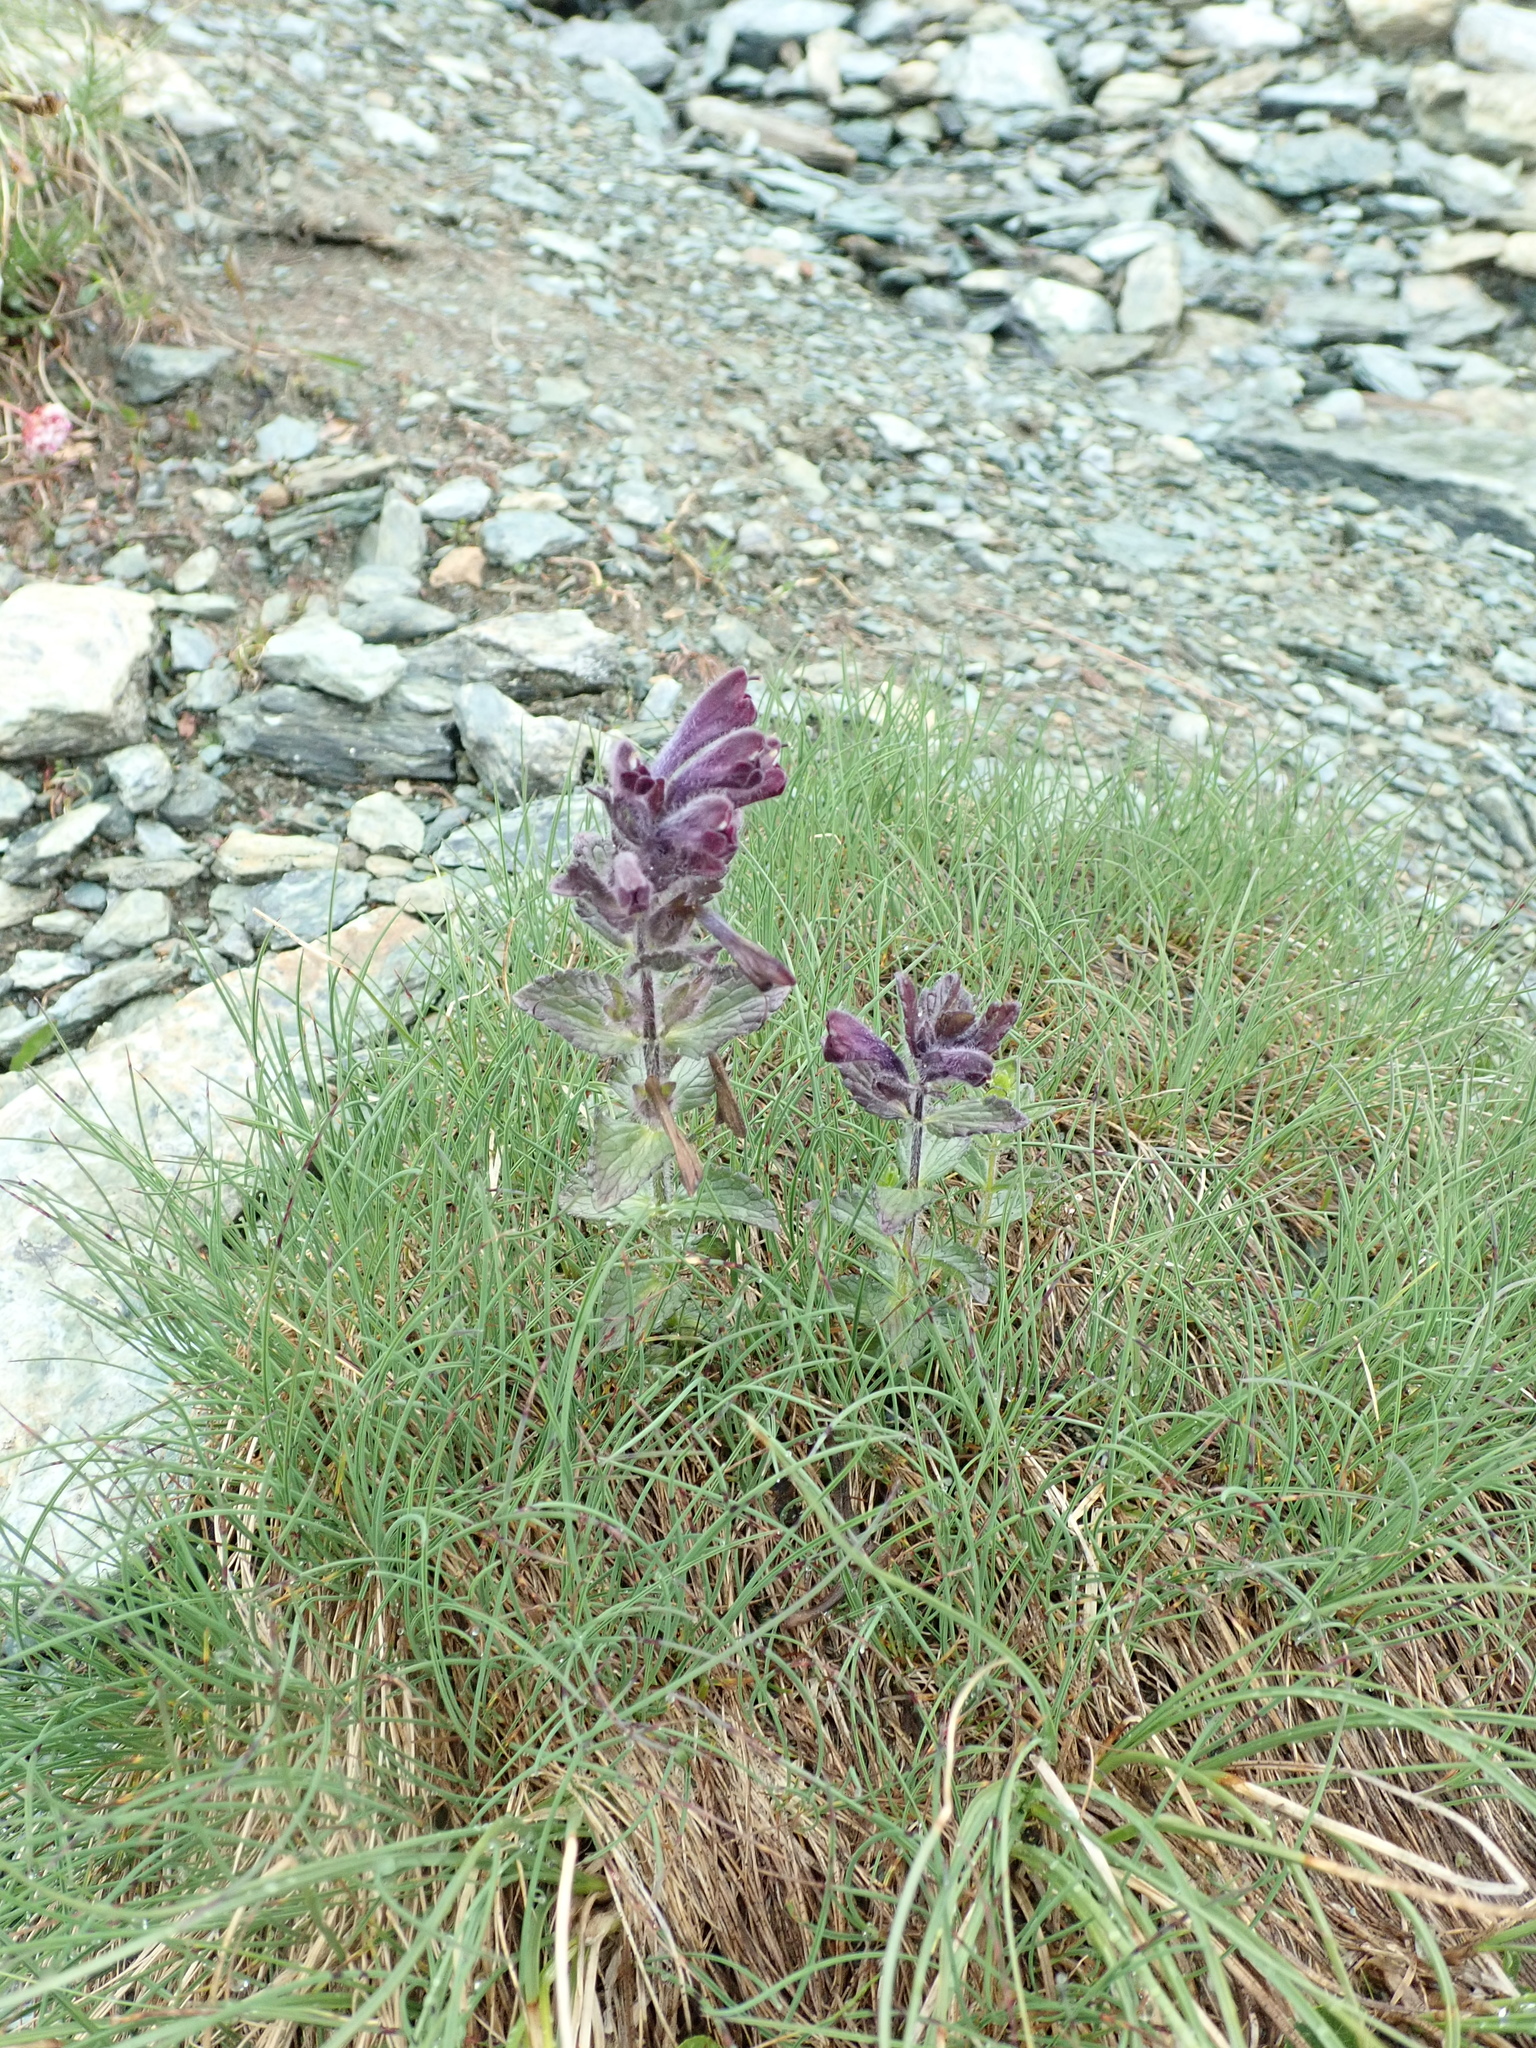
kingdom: Plantae
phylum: Tracheophyta
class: Magnoliopsida
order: Lamiales
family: Orobanchaceae
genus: Bartsia
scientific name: Bartsia alpina
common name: Alpine bartsia
